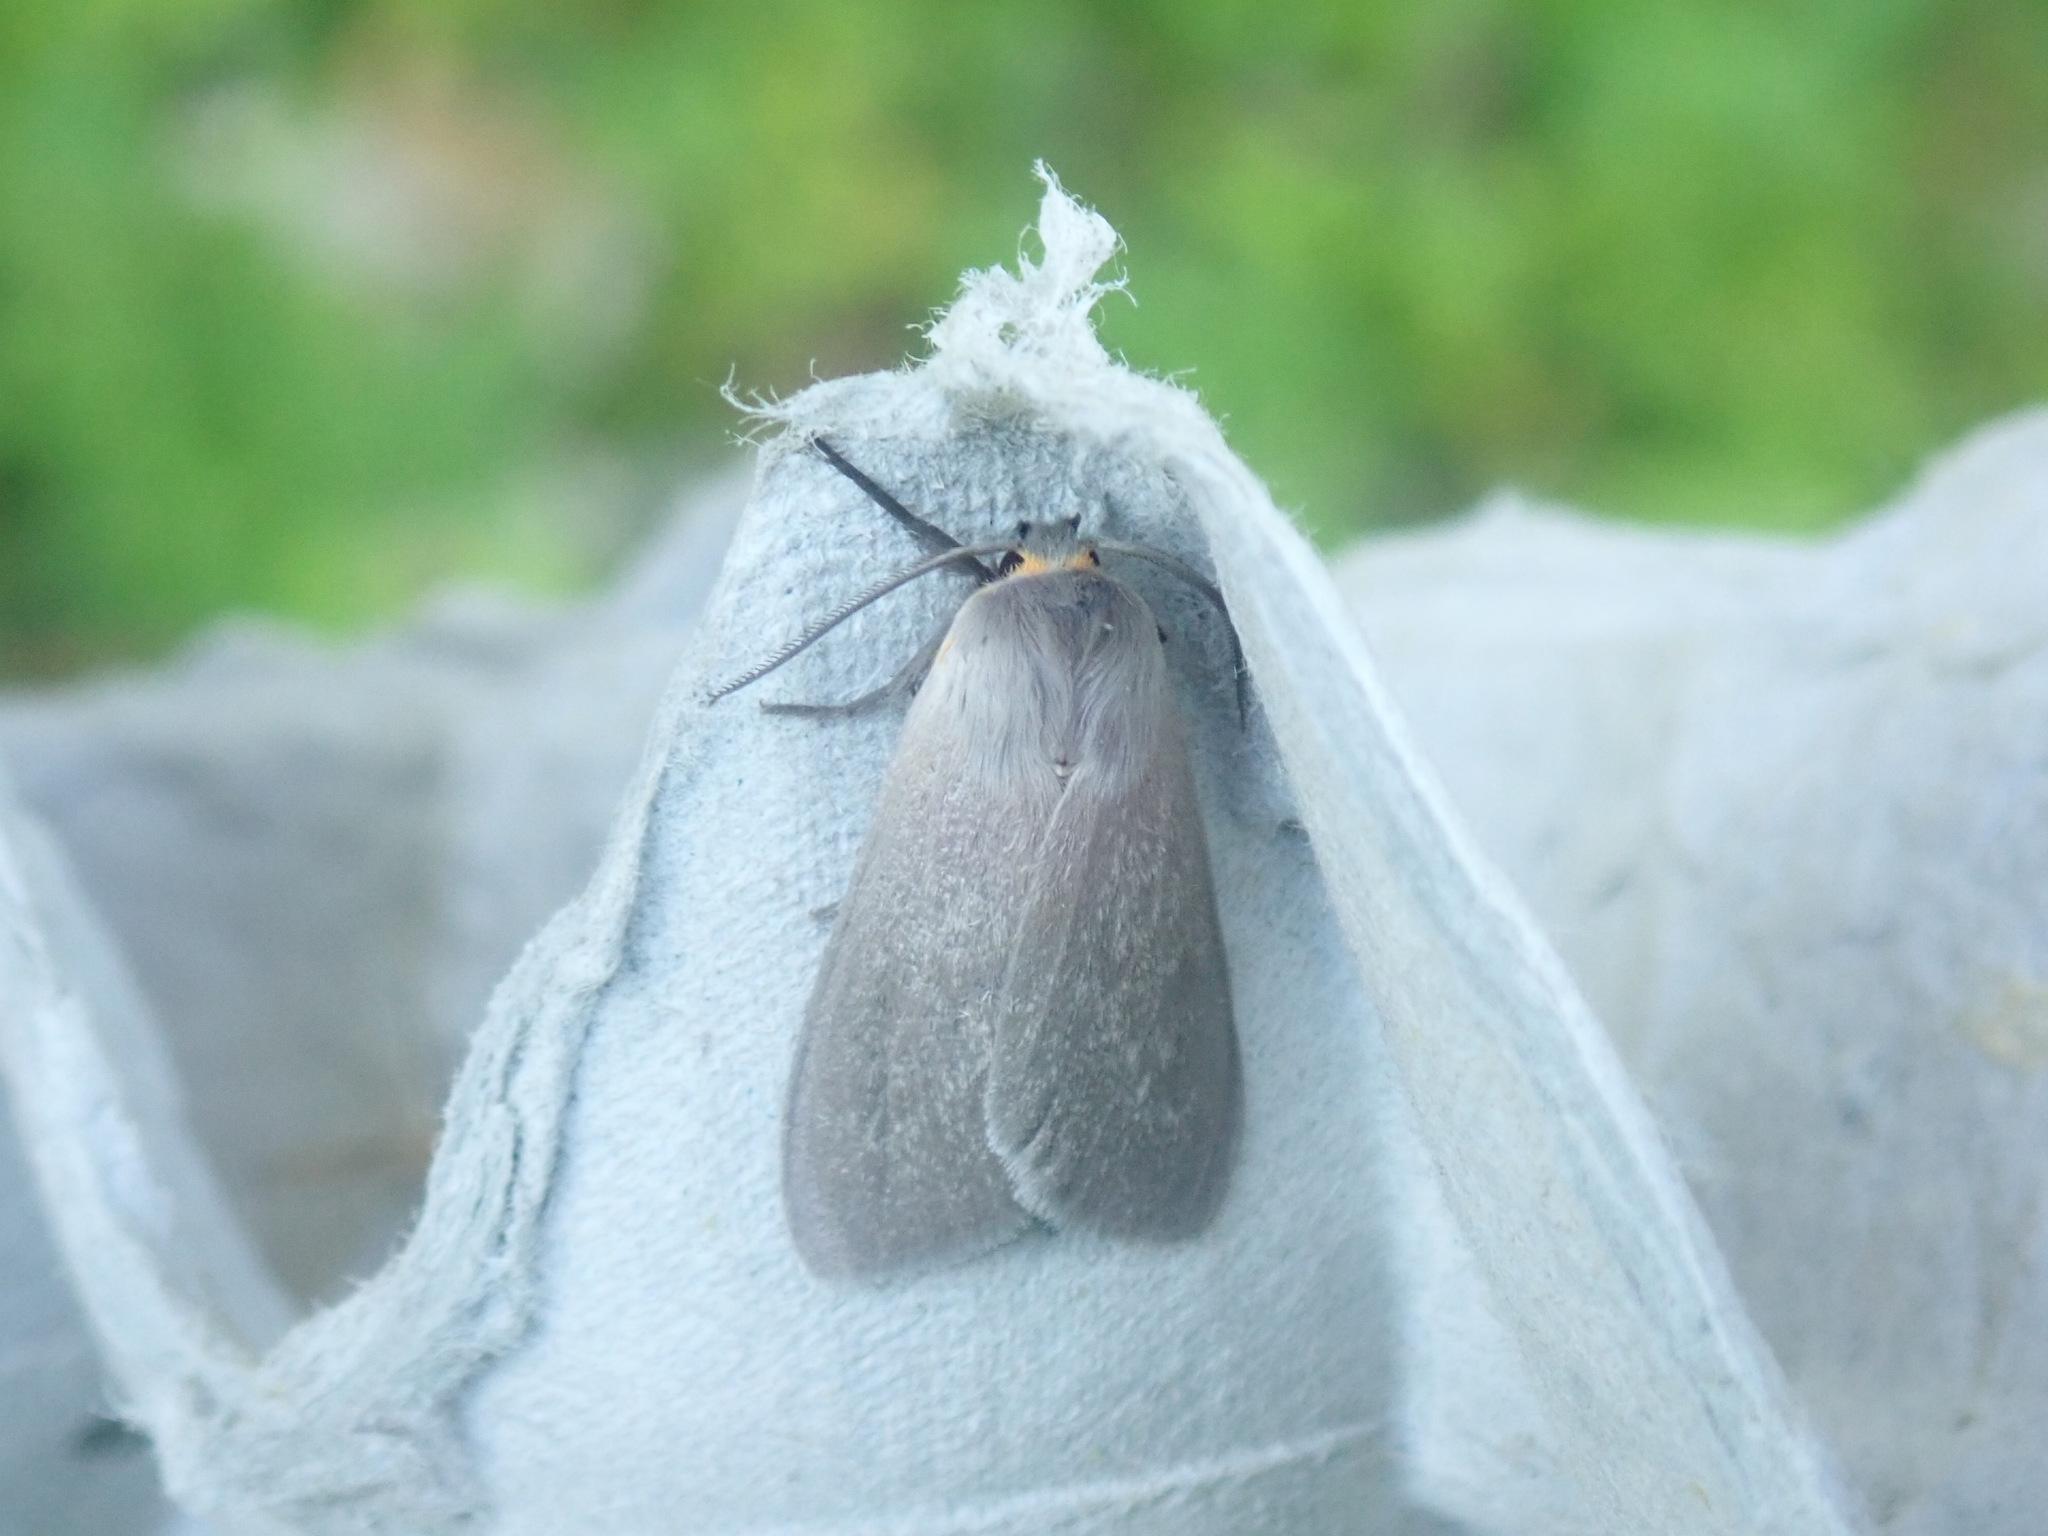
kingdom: Animalia
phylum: Arthropoda
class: Insecta
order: Lepidoptera
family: Erebidae
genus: Euchaetes
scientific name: Euchaetes egle
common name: Milkweed tussock moth
